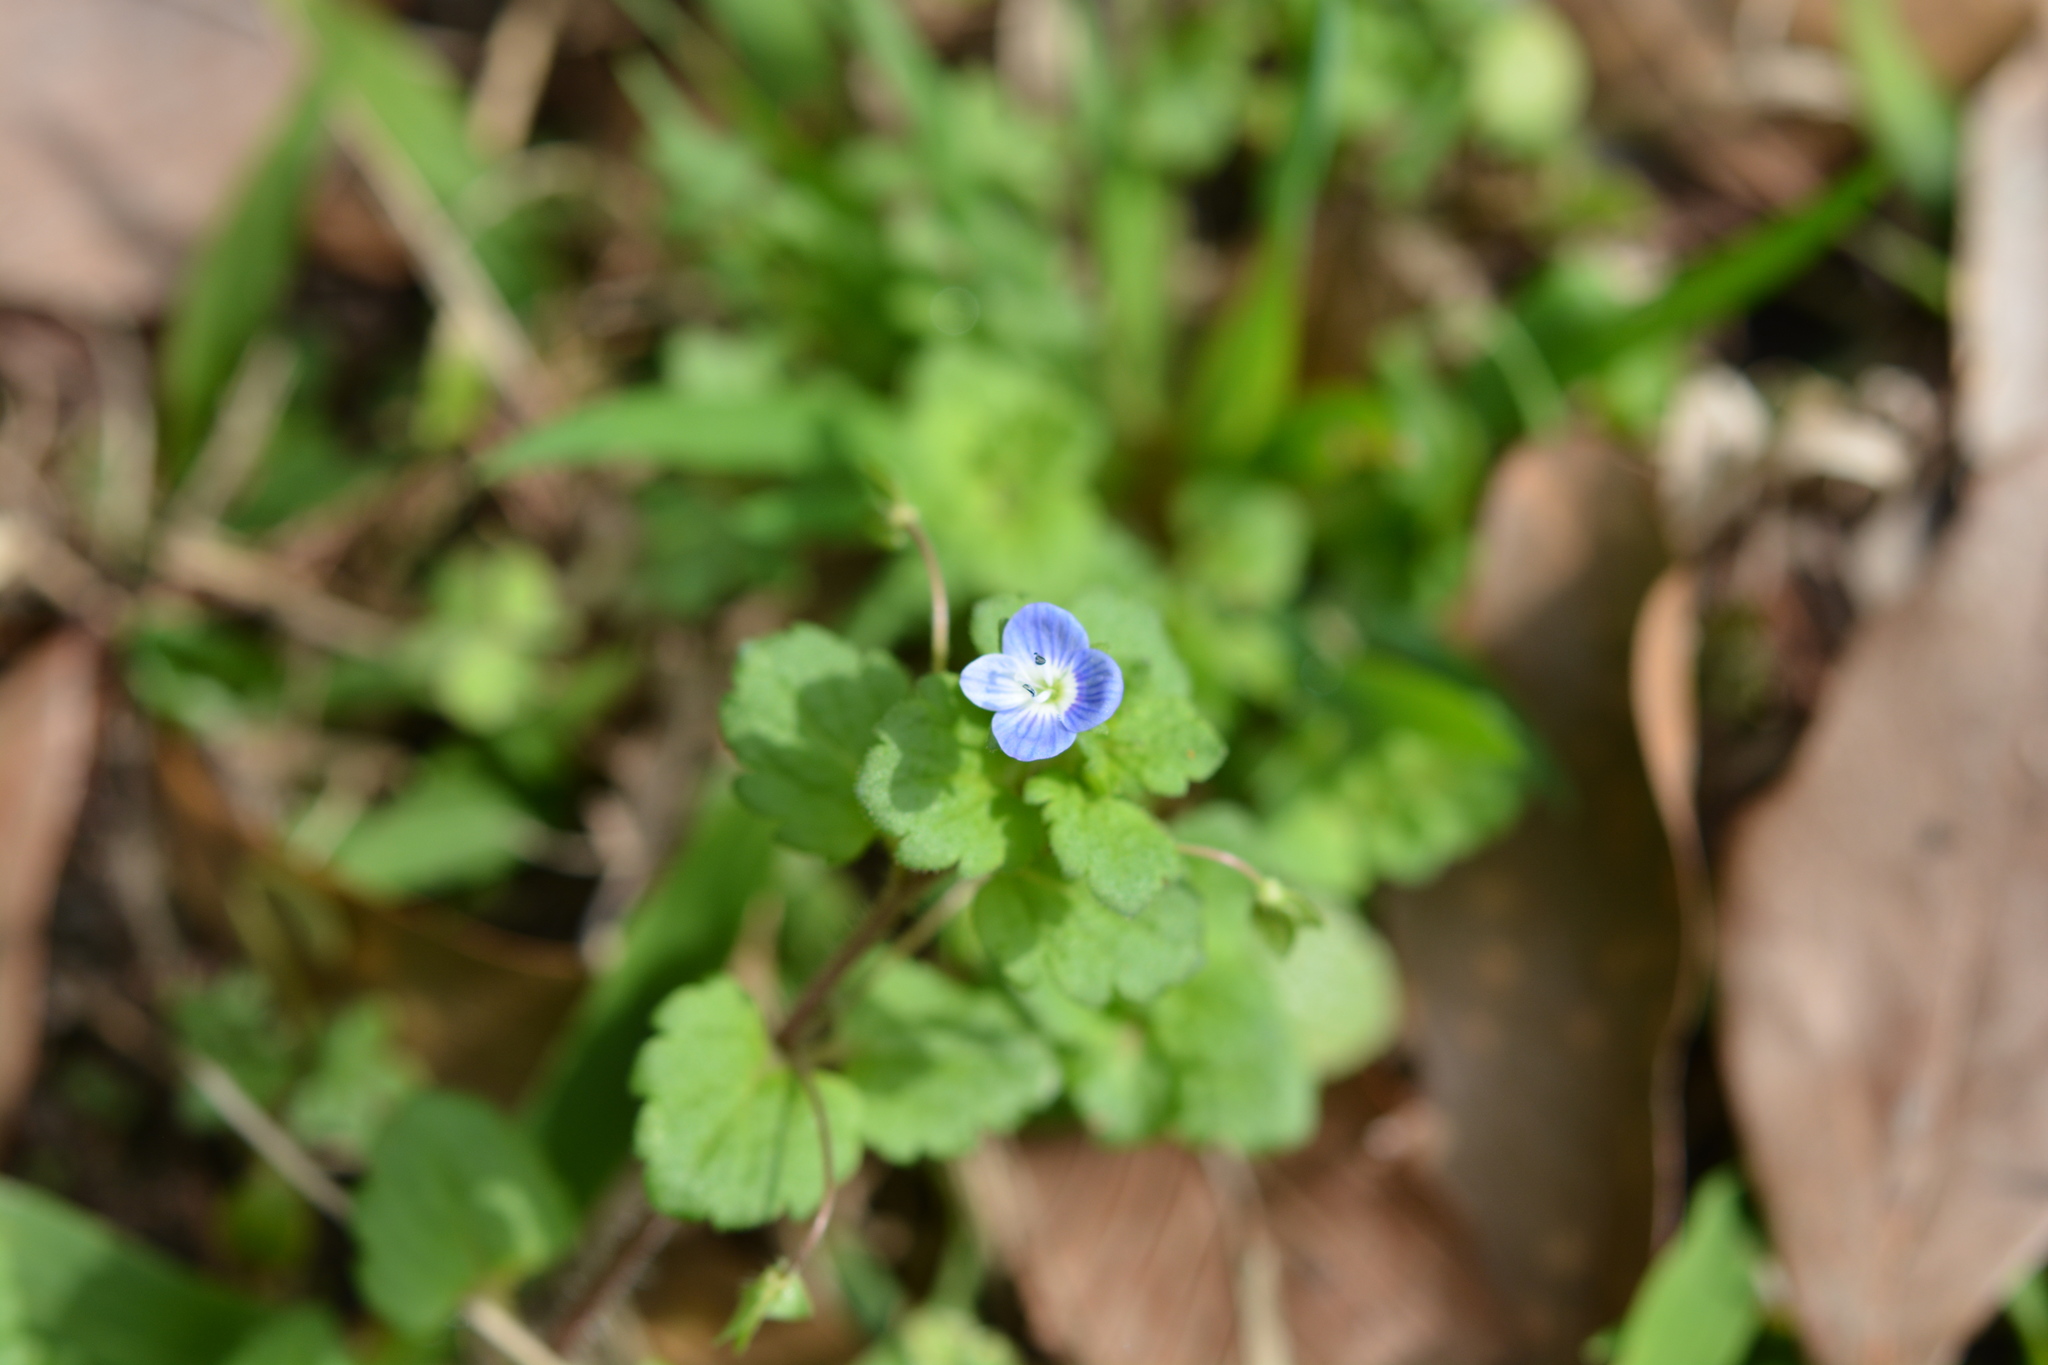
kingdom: Plantae
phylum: Tracheophyta
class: Magnoliopsida
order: Lamiales
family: Plantaginaceae
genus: Veronica
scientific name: Veronica persica
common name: Common field-speedwell
